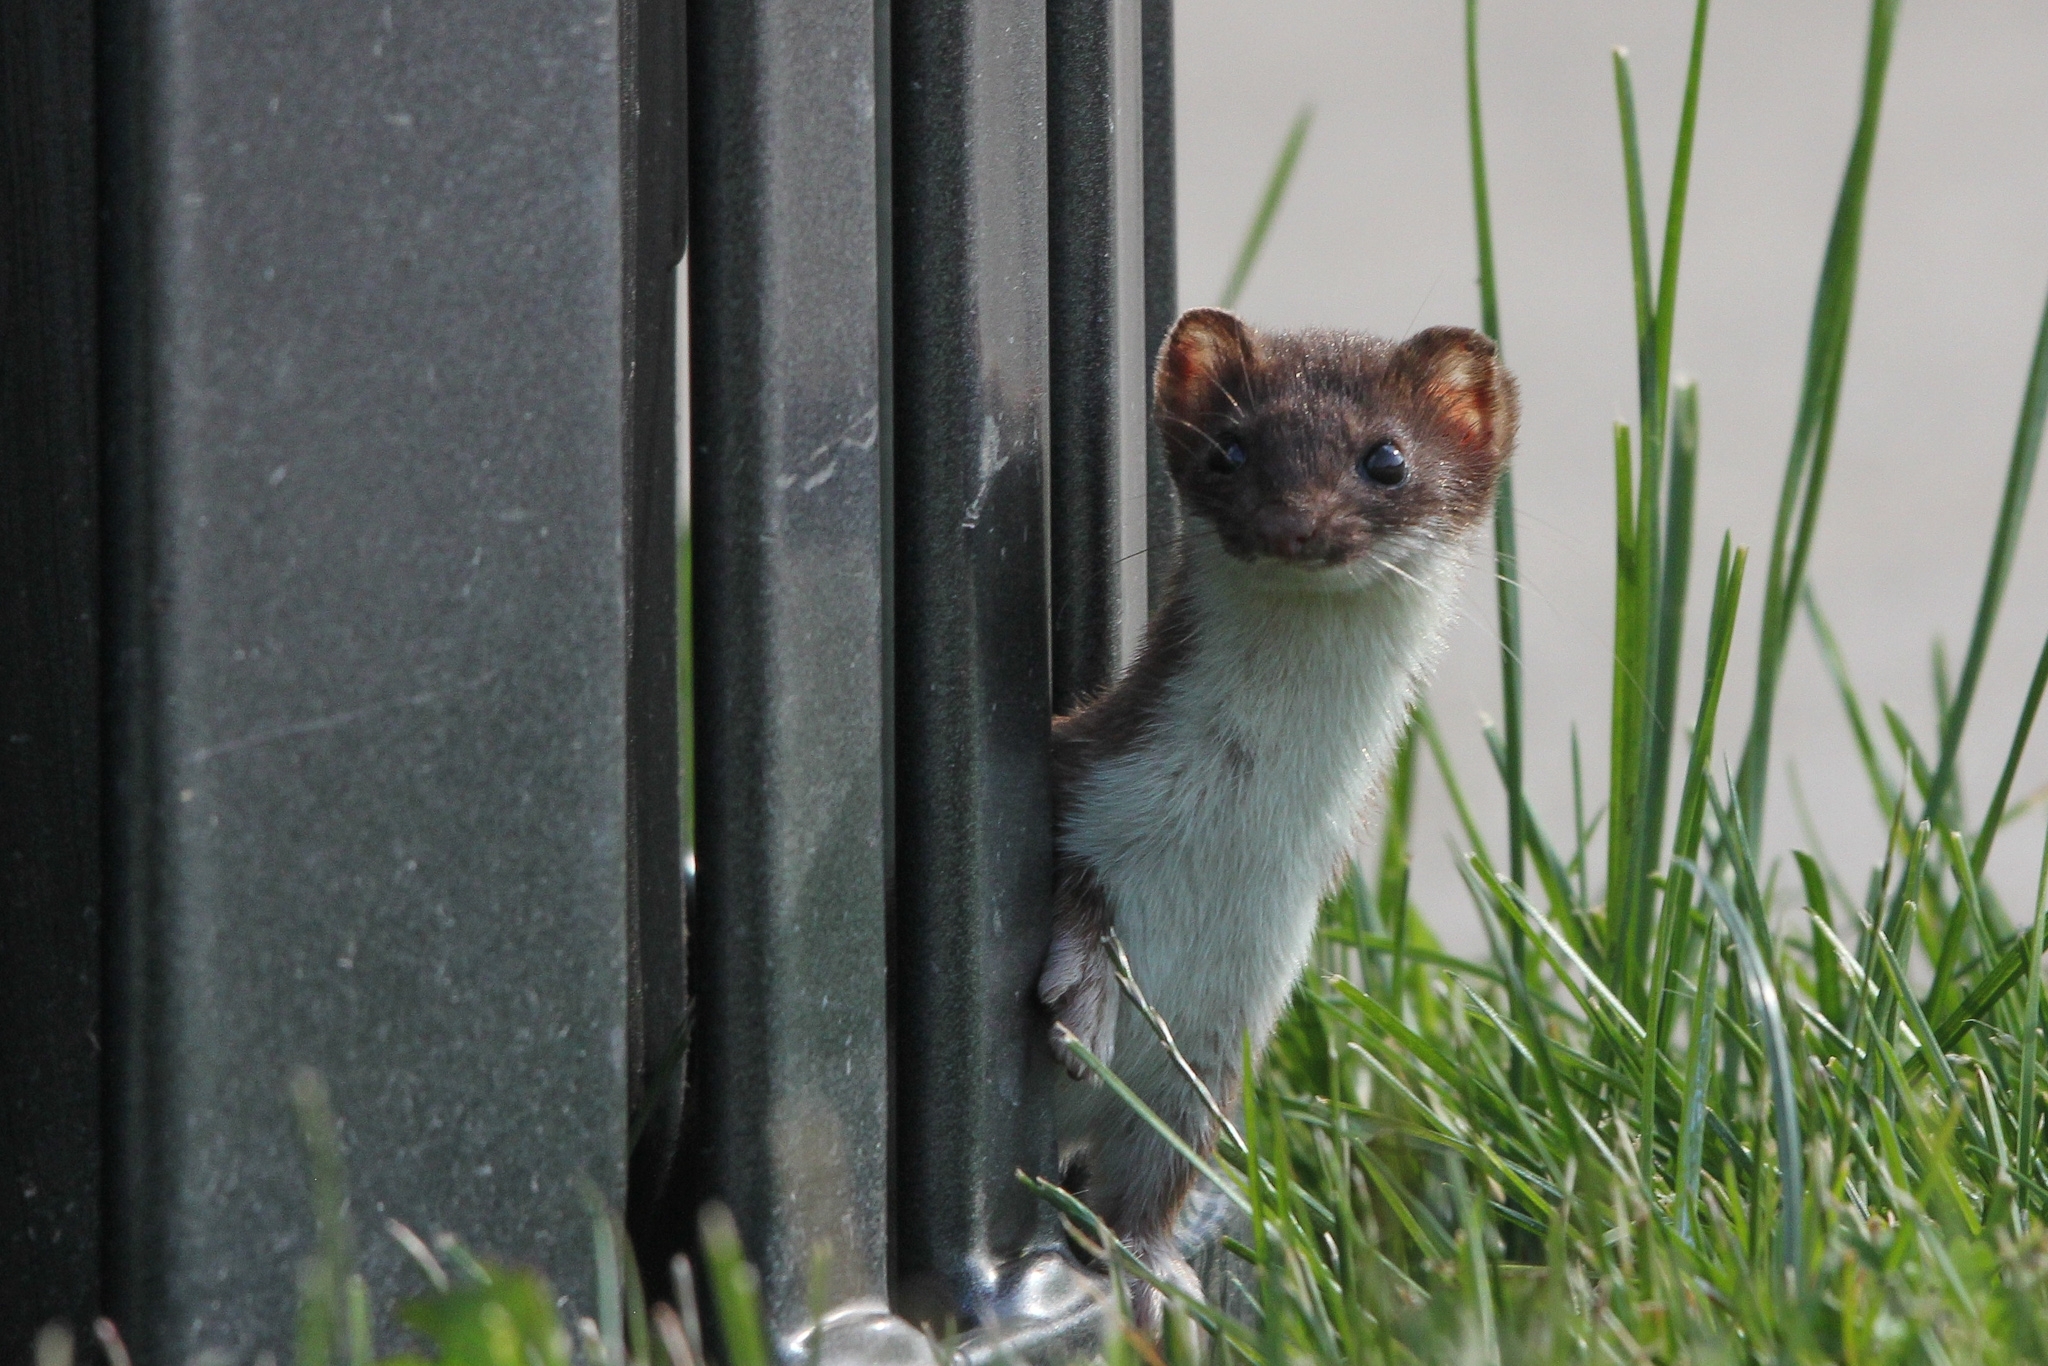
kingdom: Animalia
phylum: Chordata
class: Mammalia
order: Carnivora
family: Mustelidae
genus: Mustela
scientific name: Mustela erminea
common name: Stoat
